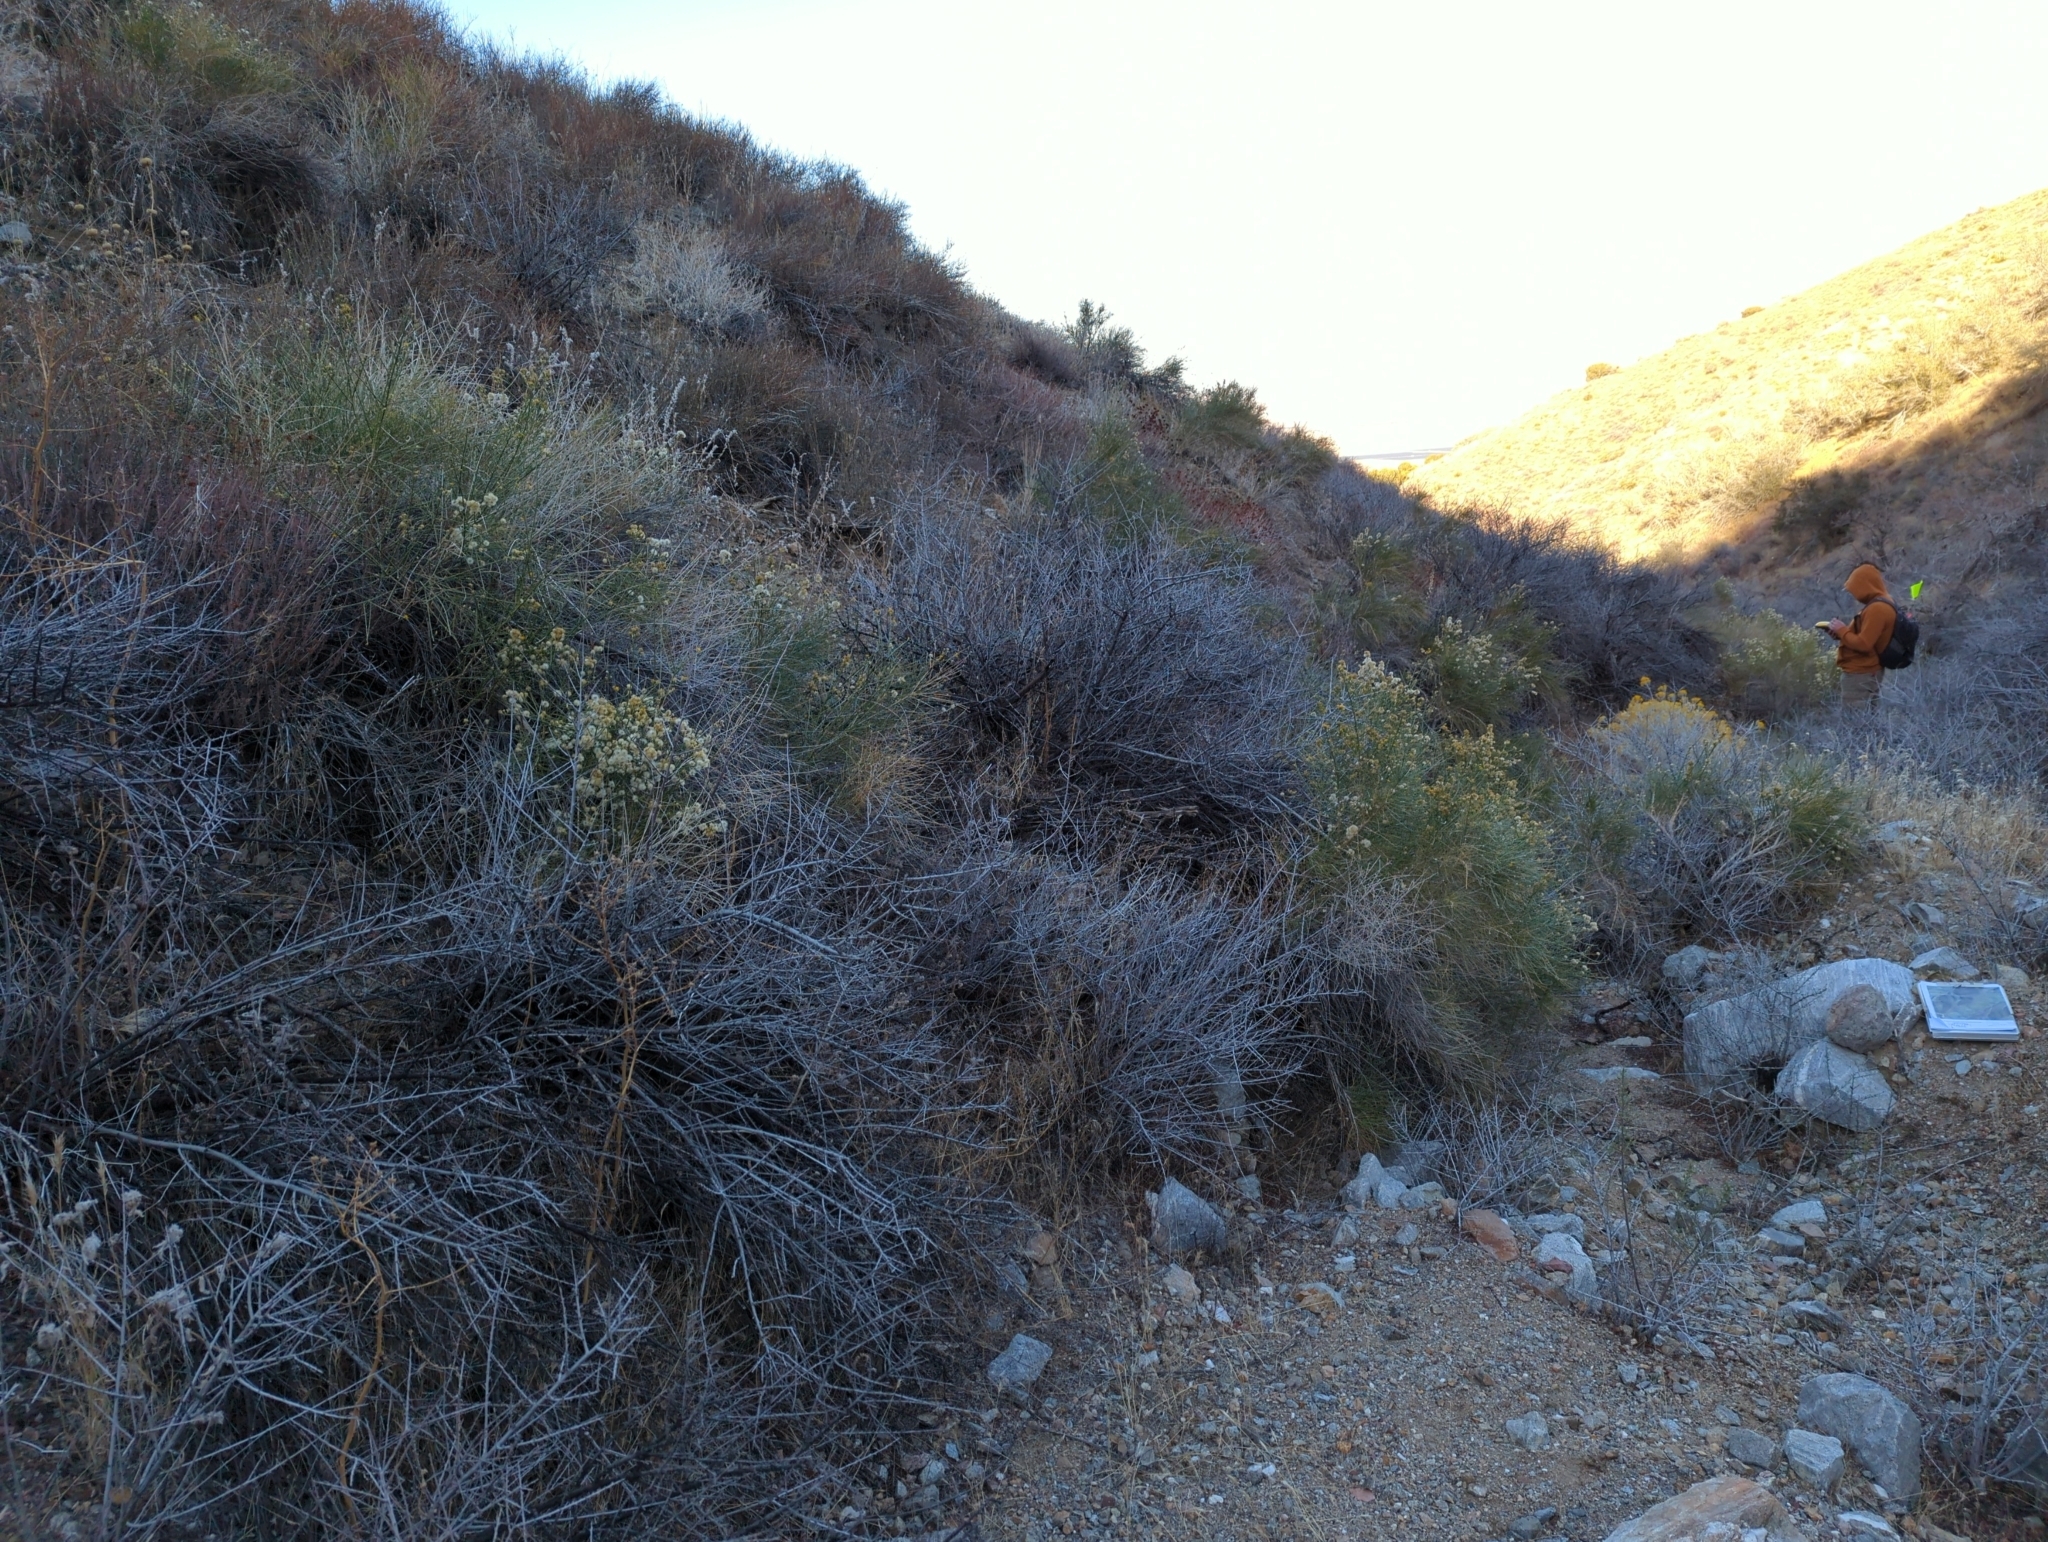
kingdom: Plantae
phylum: Tracheophyta
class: Magnoliopsida
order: Asterales
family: Asteraceae
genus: Lepidospartum
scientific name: Lepidospartum squamatum
